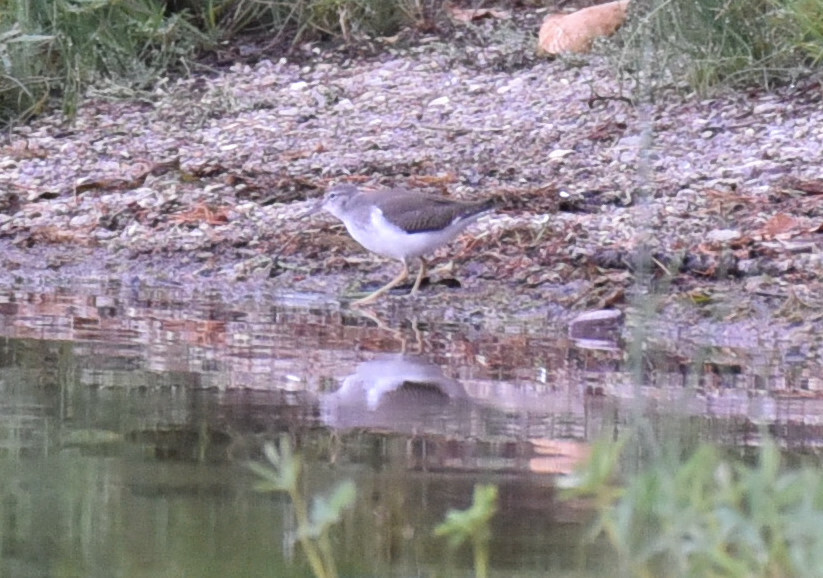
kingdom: Animalia
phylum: Chordata
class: Aves
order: Charadriiformes
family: Scolopacidae
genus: Actitis
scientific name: Actitis macularius
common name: Spotted sandpiper
